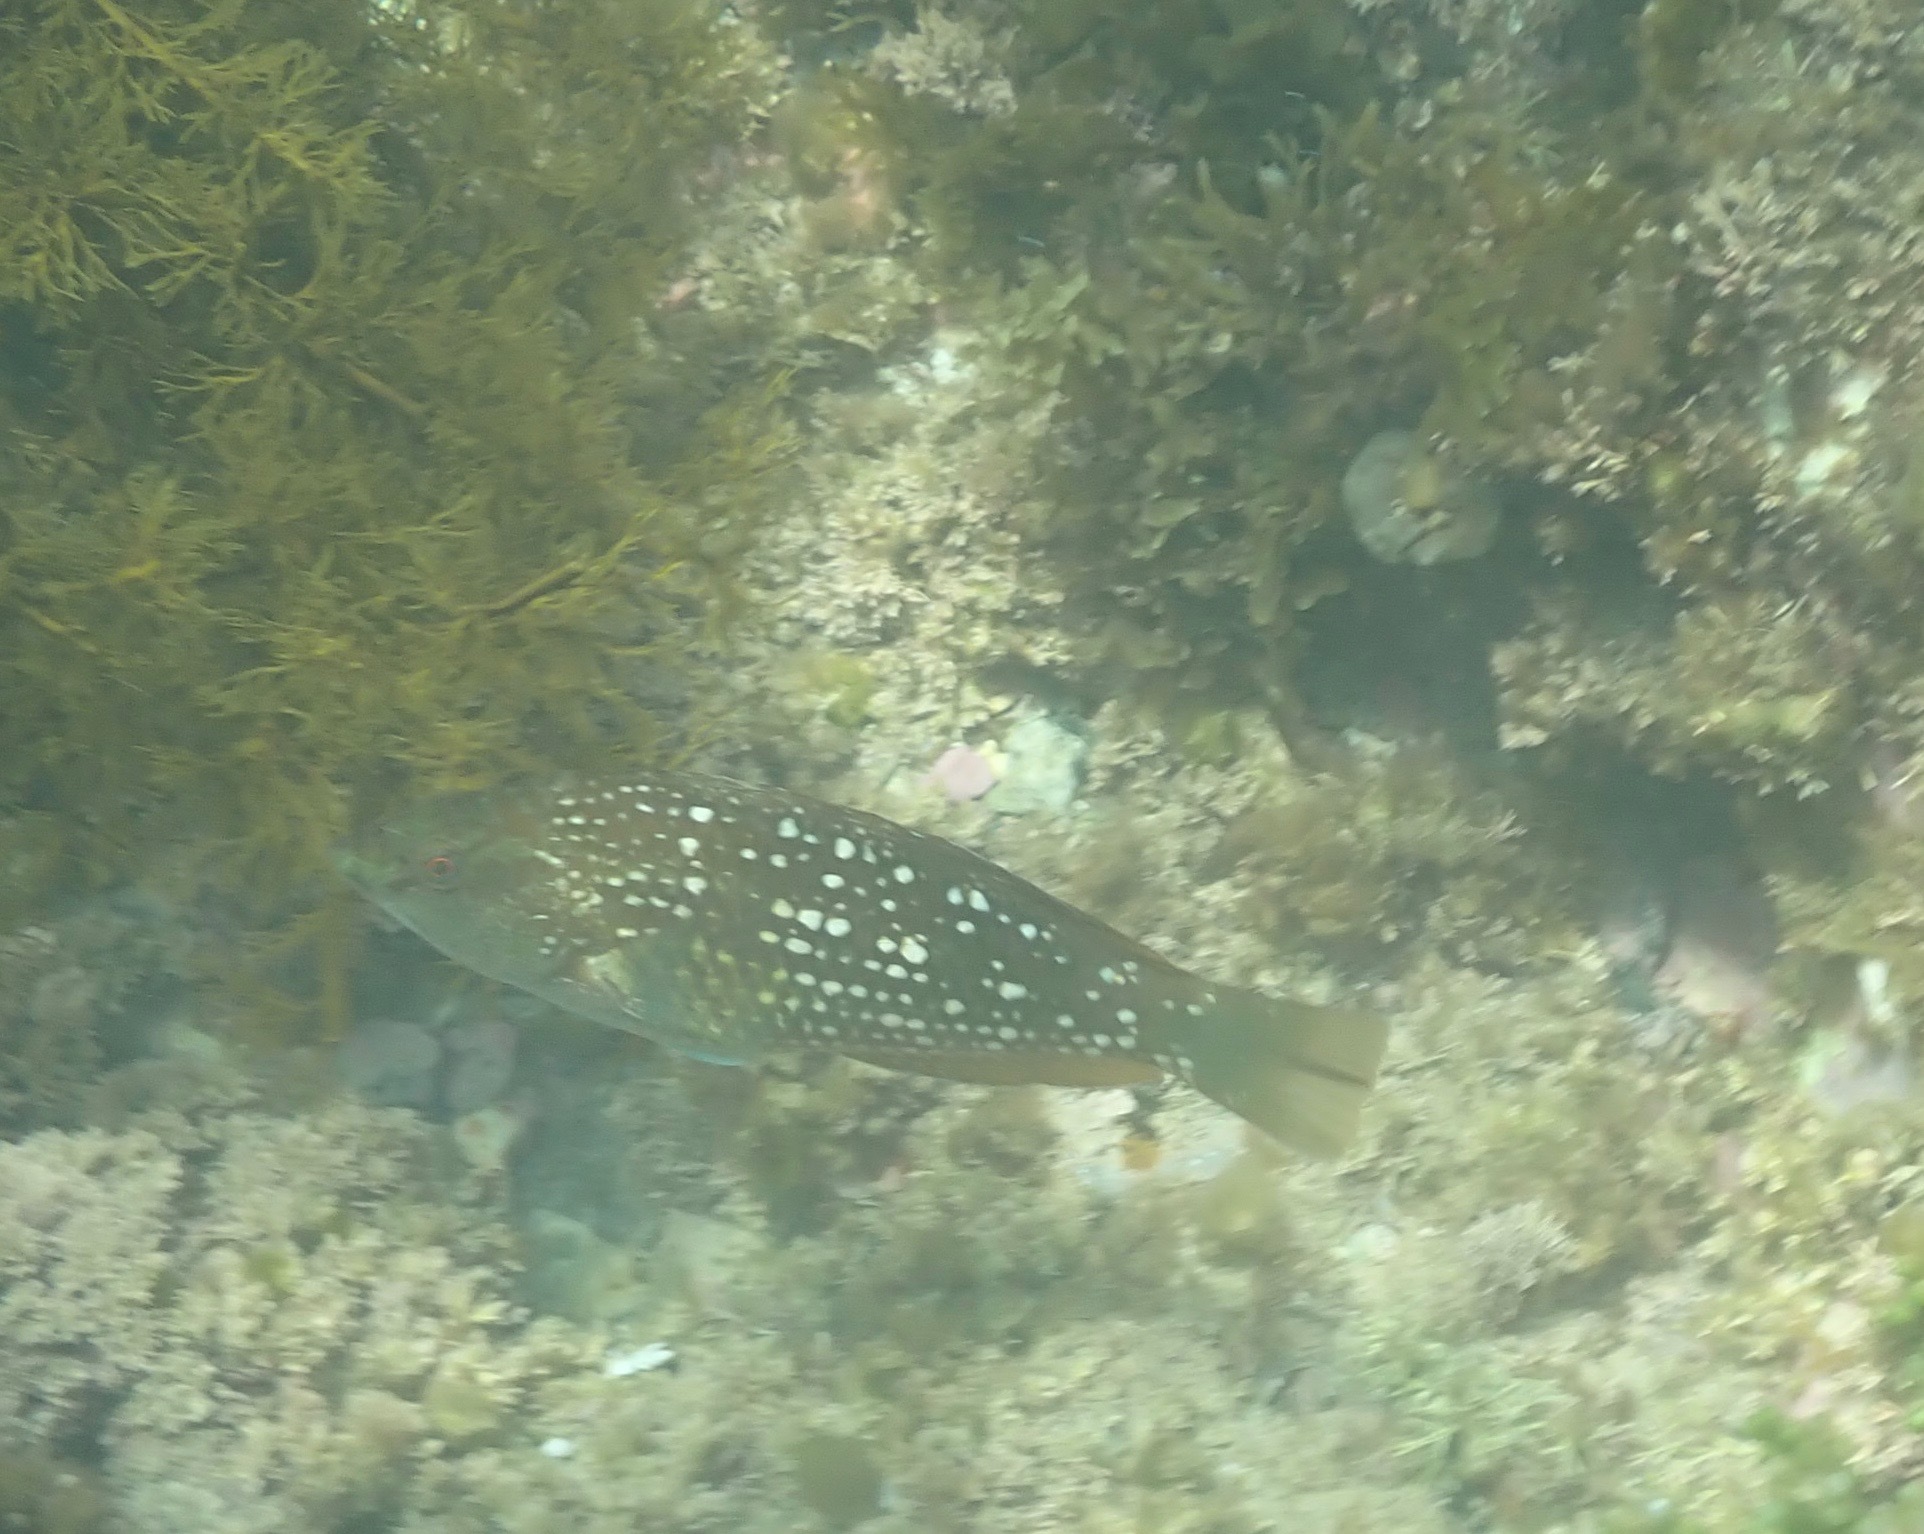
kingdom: Animalia
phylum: Chordata
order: Perciformes
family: Labridae
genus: Notolabrus
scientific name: Notolabrus gymnogenis
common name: Crimson banded wrasse
